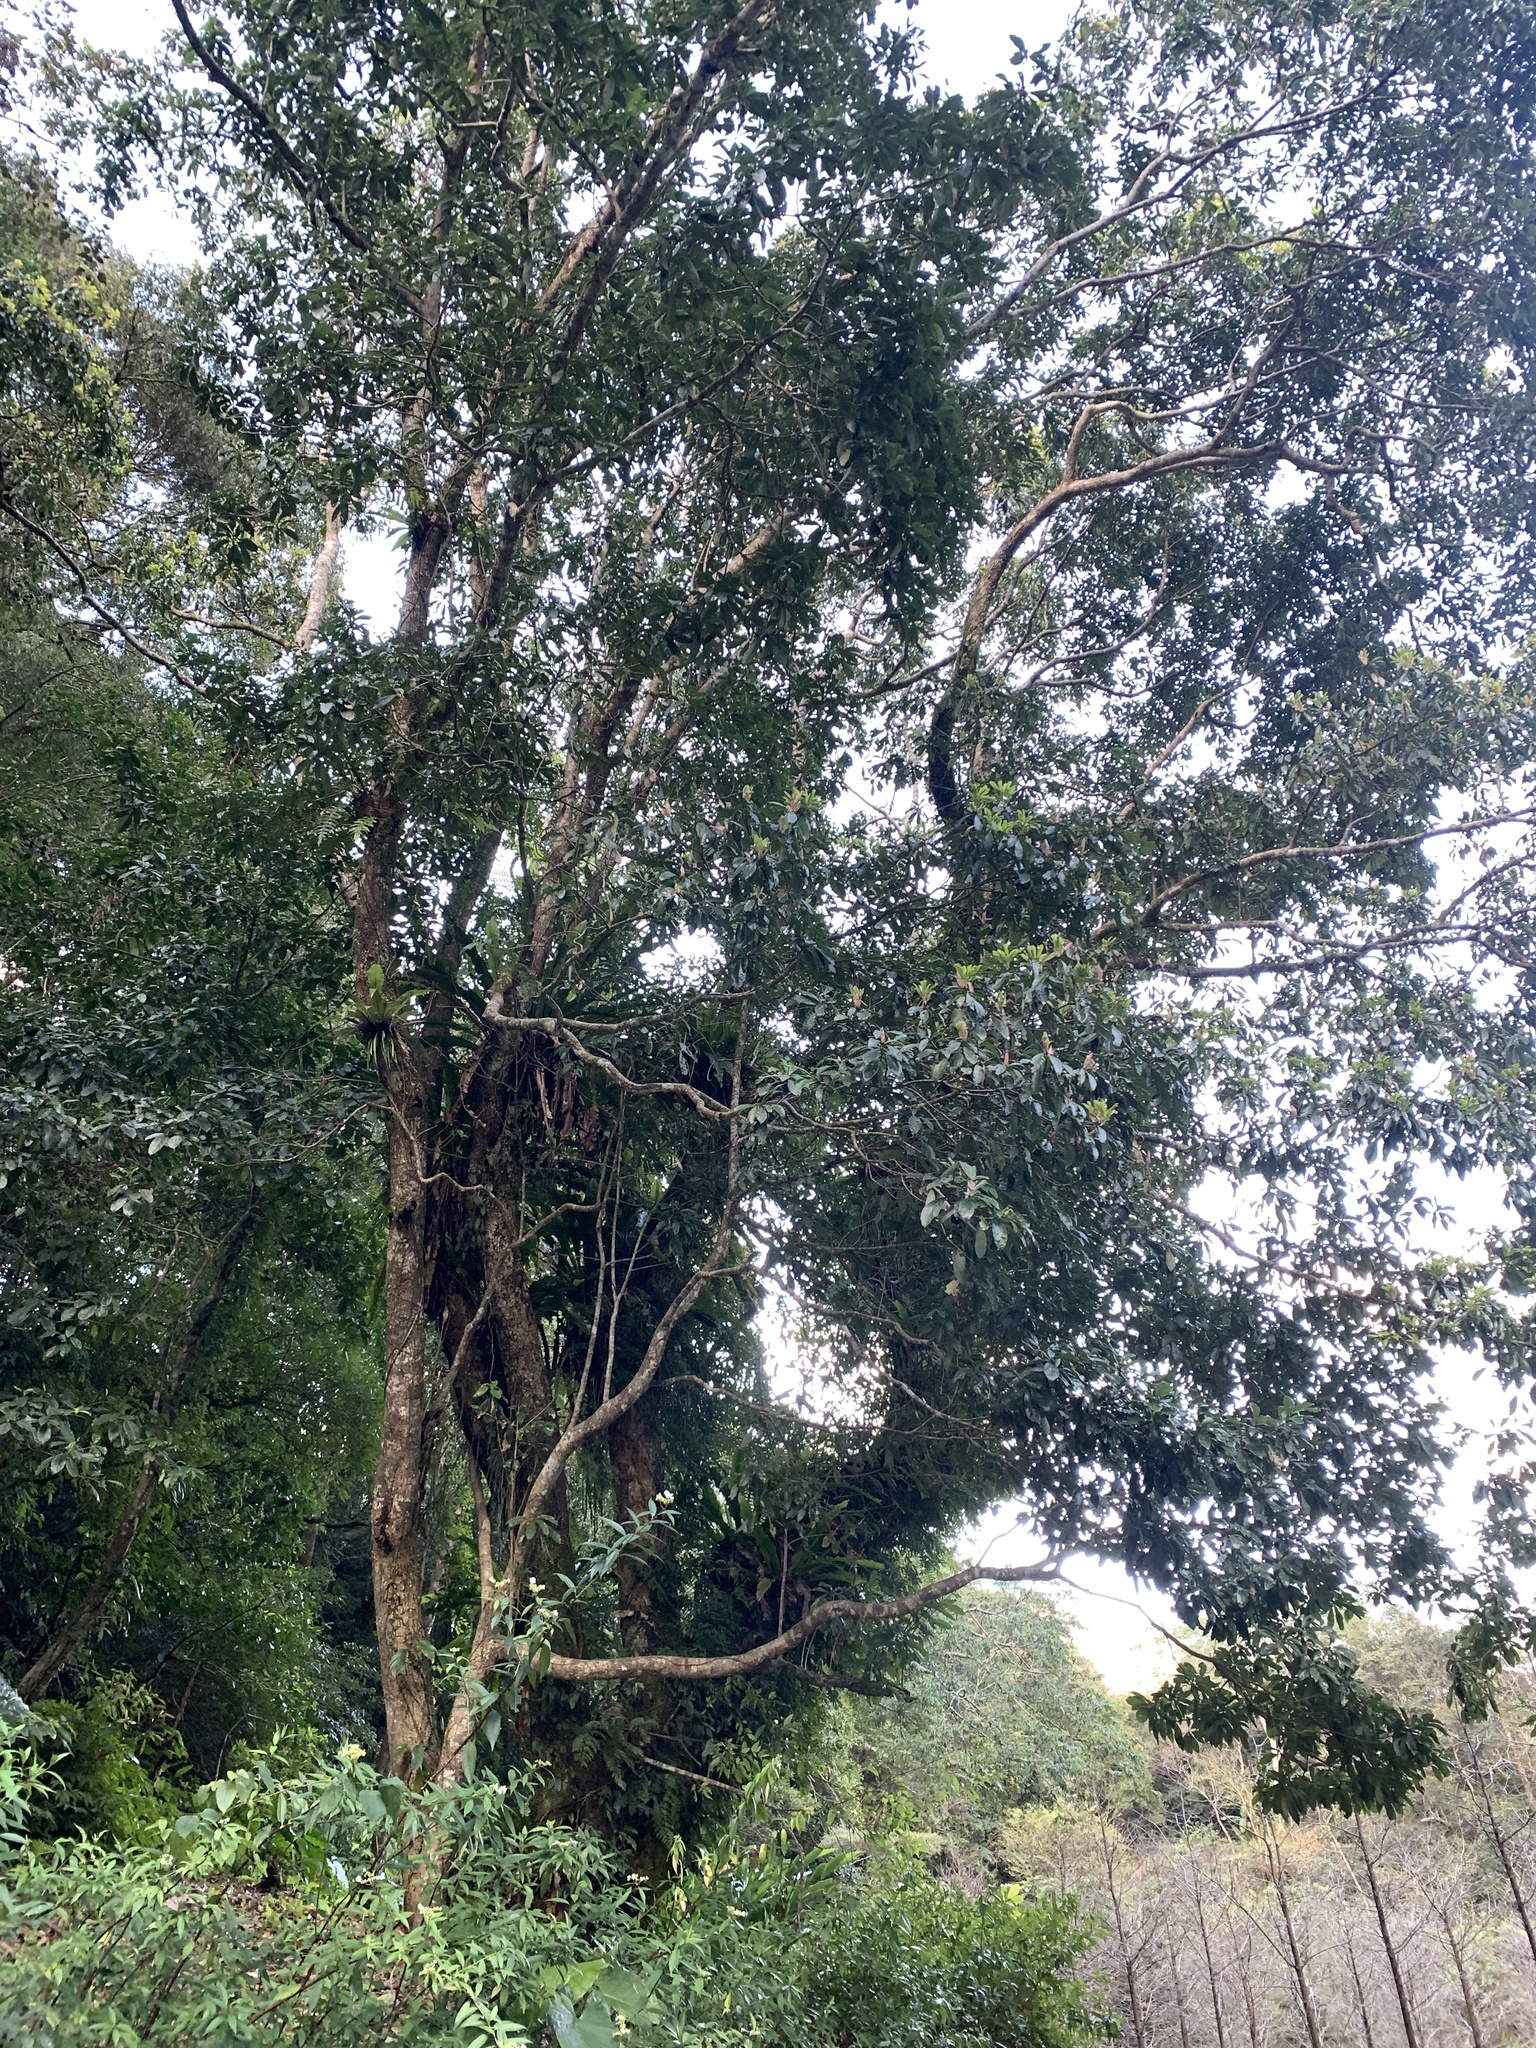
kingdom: Plantae
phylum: Tracheophyta
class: Magnoliopsida
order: Laurales
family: Lauraceae
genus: Machilus
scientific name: Machilus japonica
